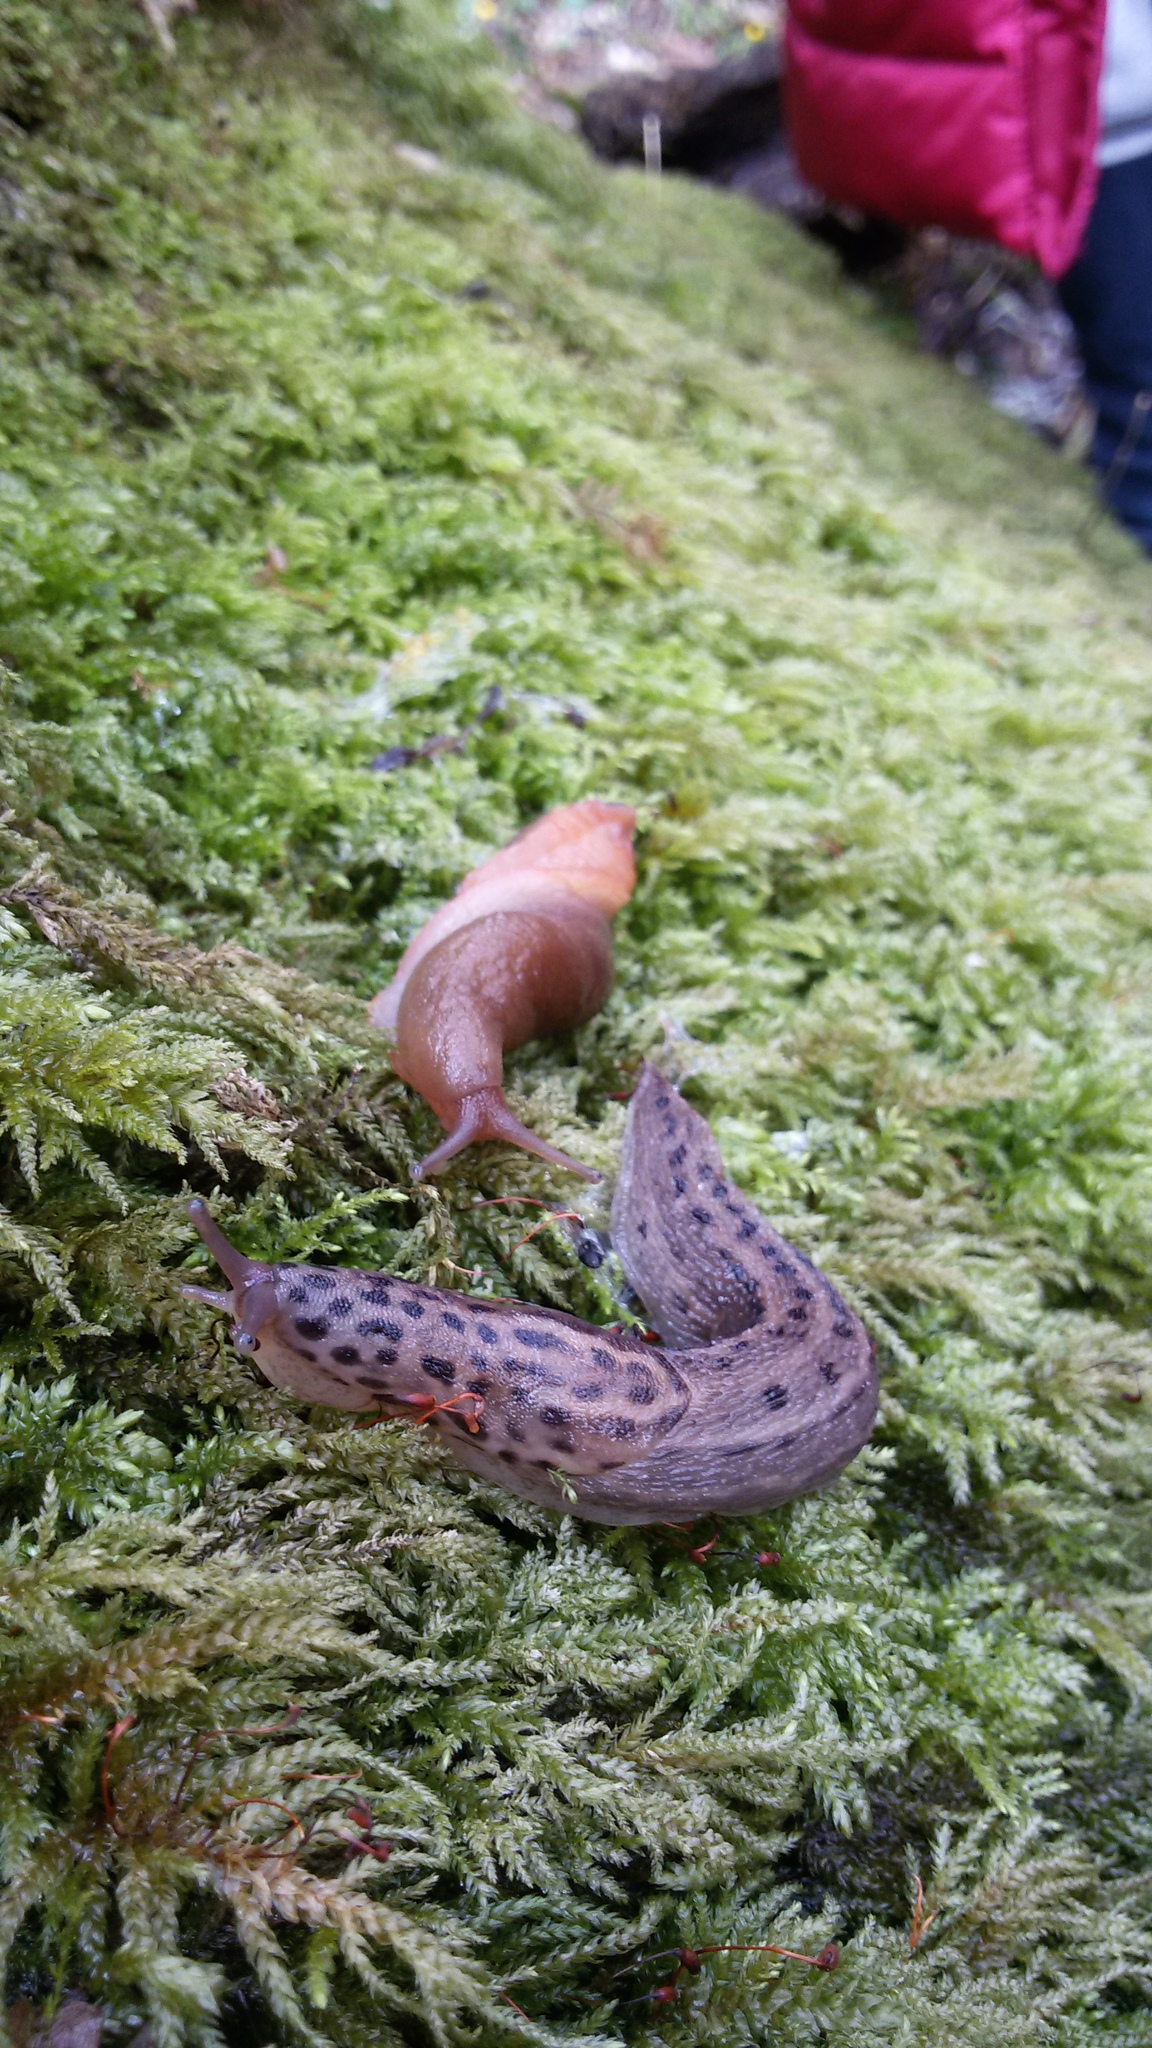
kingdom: Animalia
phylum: Mollusca
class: Gastropoda
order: Stylommatophora
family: Limacidae
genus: Limax
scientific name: Limax maximus
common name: Great grey slug
